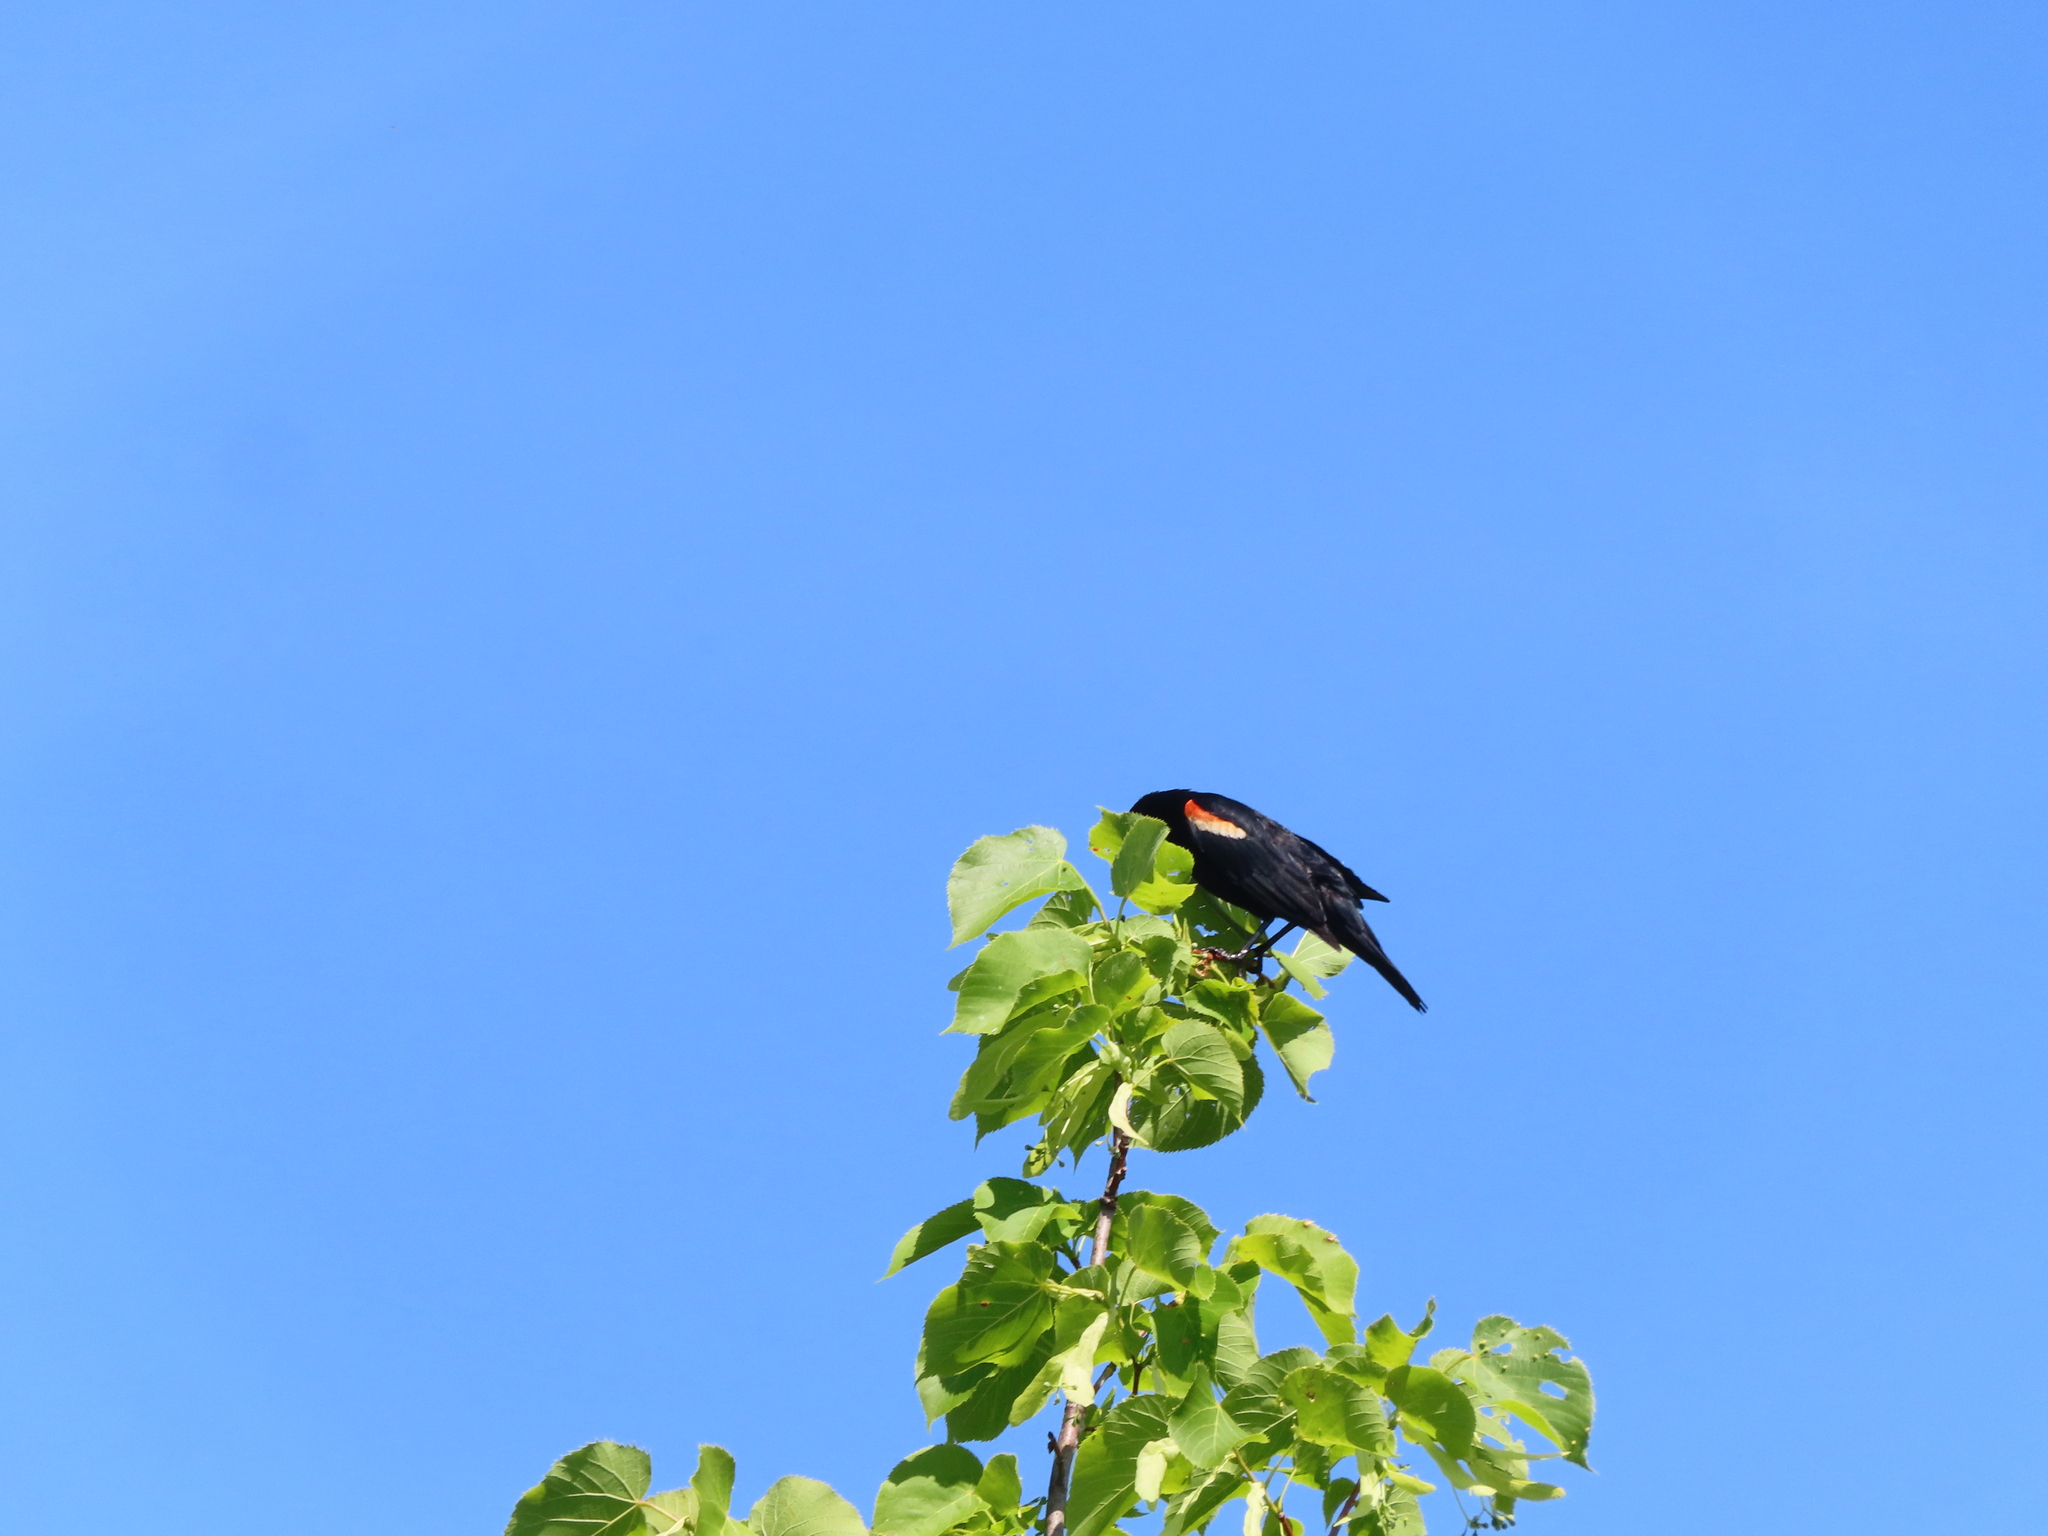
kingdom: Animalia
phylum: Chordata
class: Aves
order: Passeriformes
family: Icteridae
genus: Agelaius
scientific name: Agelaius phoeniceus
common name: Red-winged blackbird
